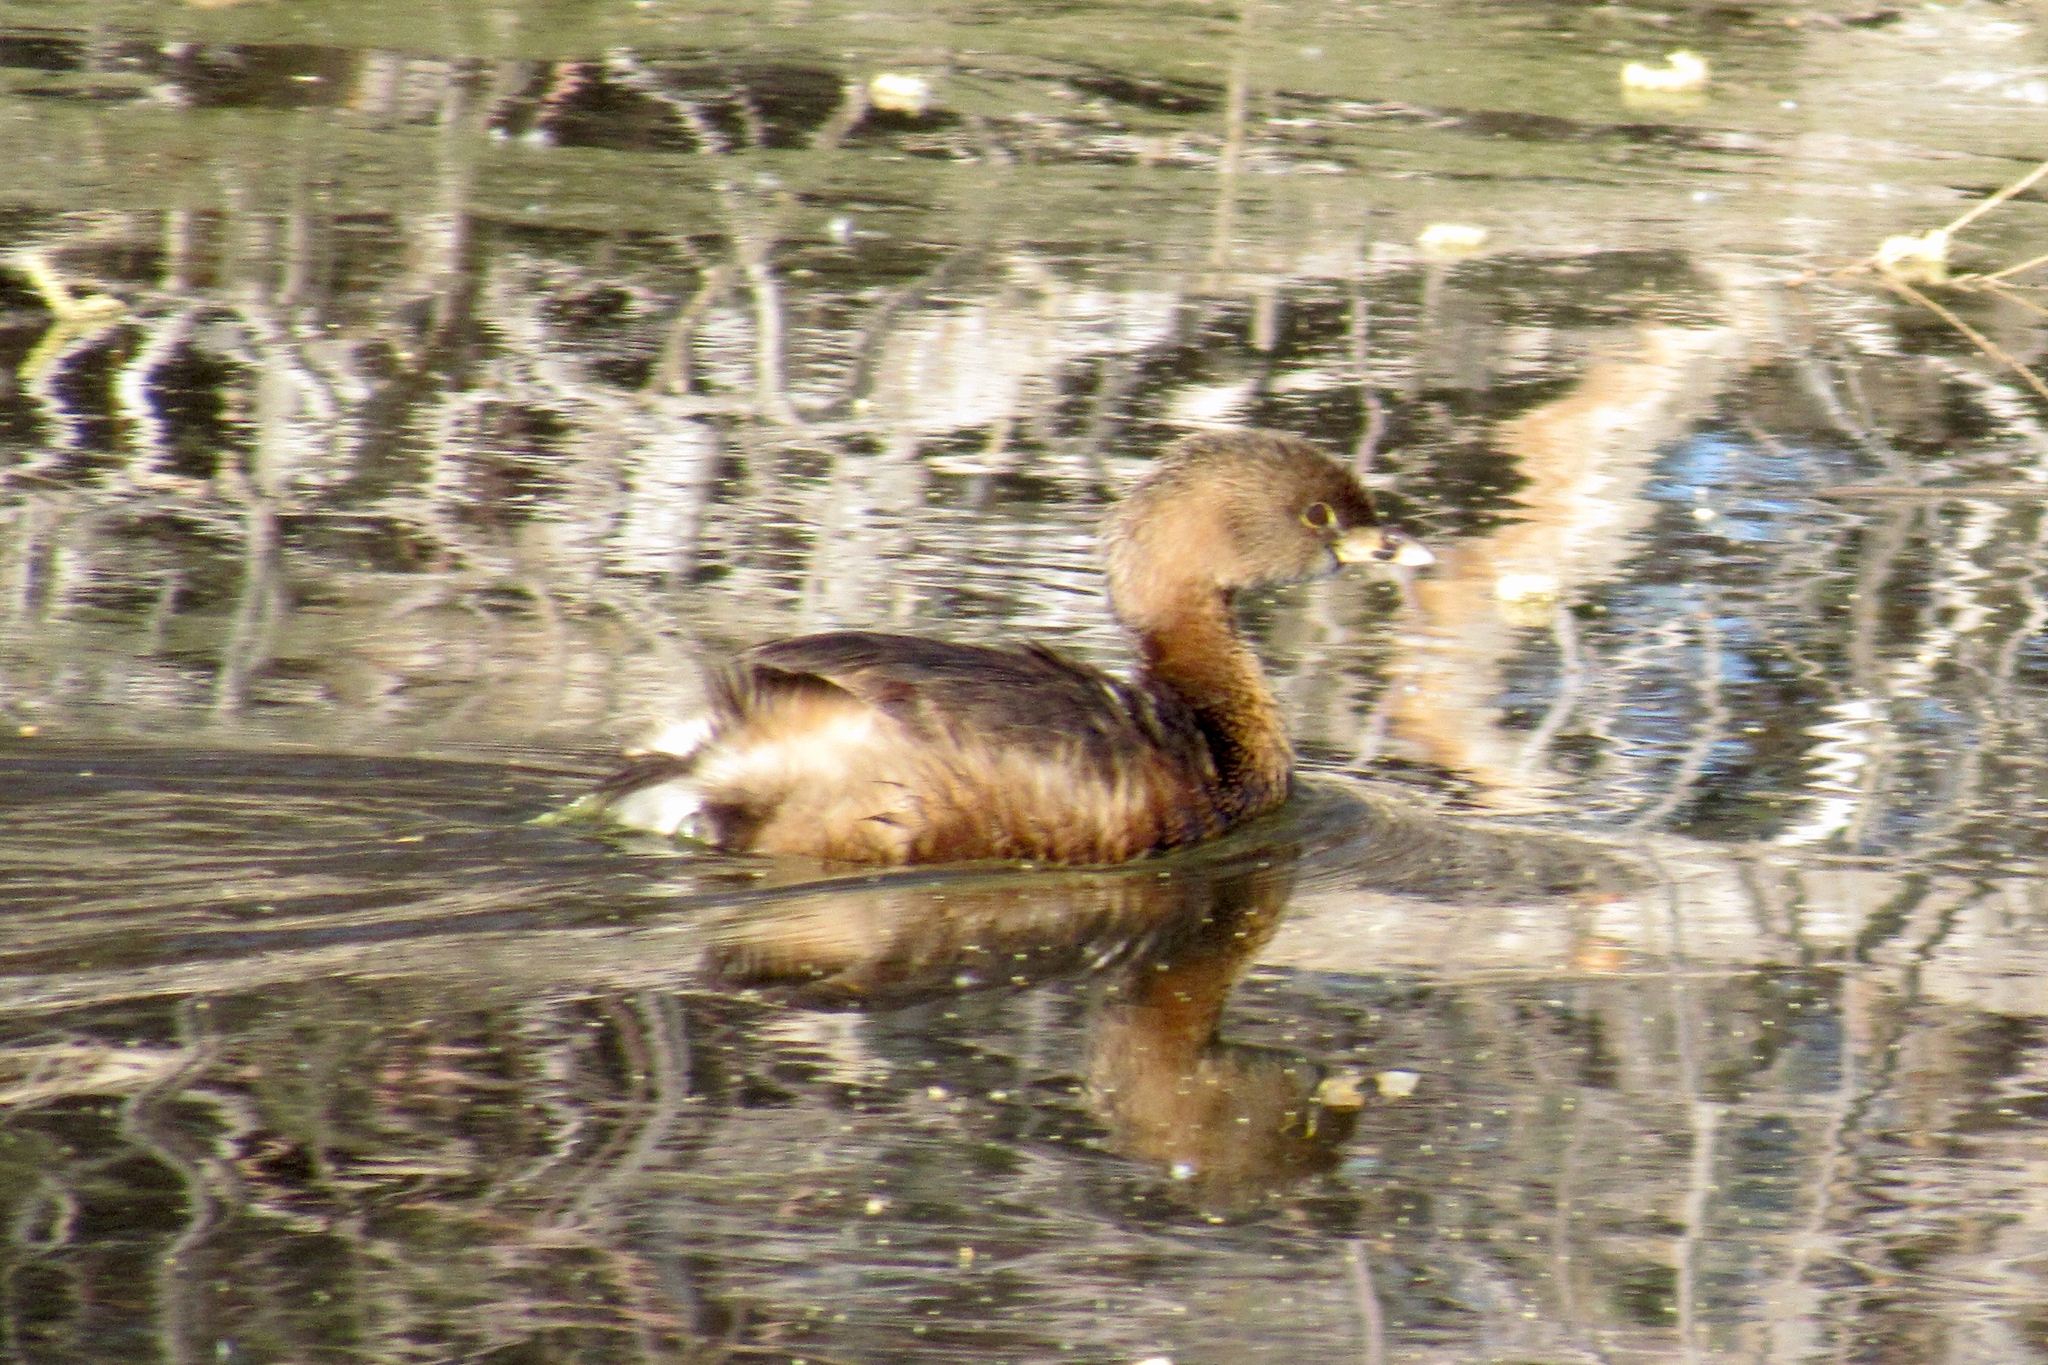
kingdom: Animalia
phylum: Chordata
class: Aves
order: Podicipediformes
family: Podicipedidae
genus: Podilymbus
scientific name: Podilymbus podiceps
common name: Pied-billed grebe
